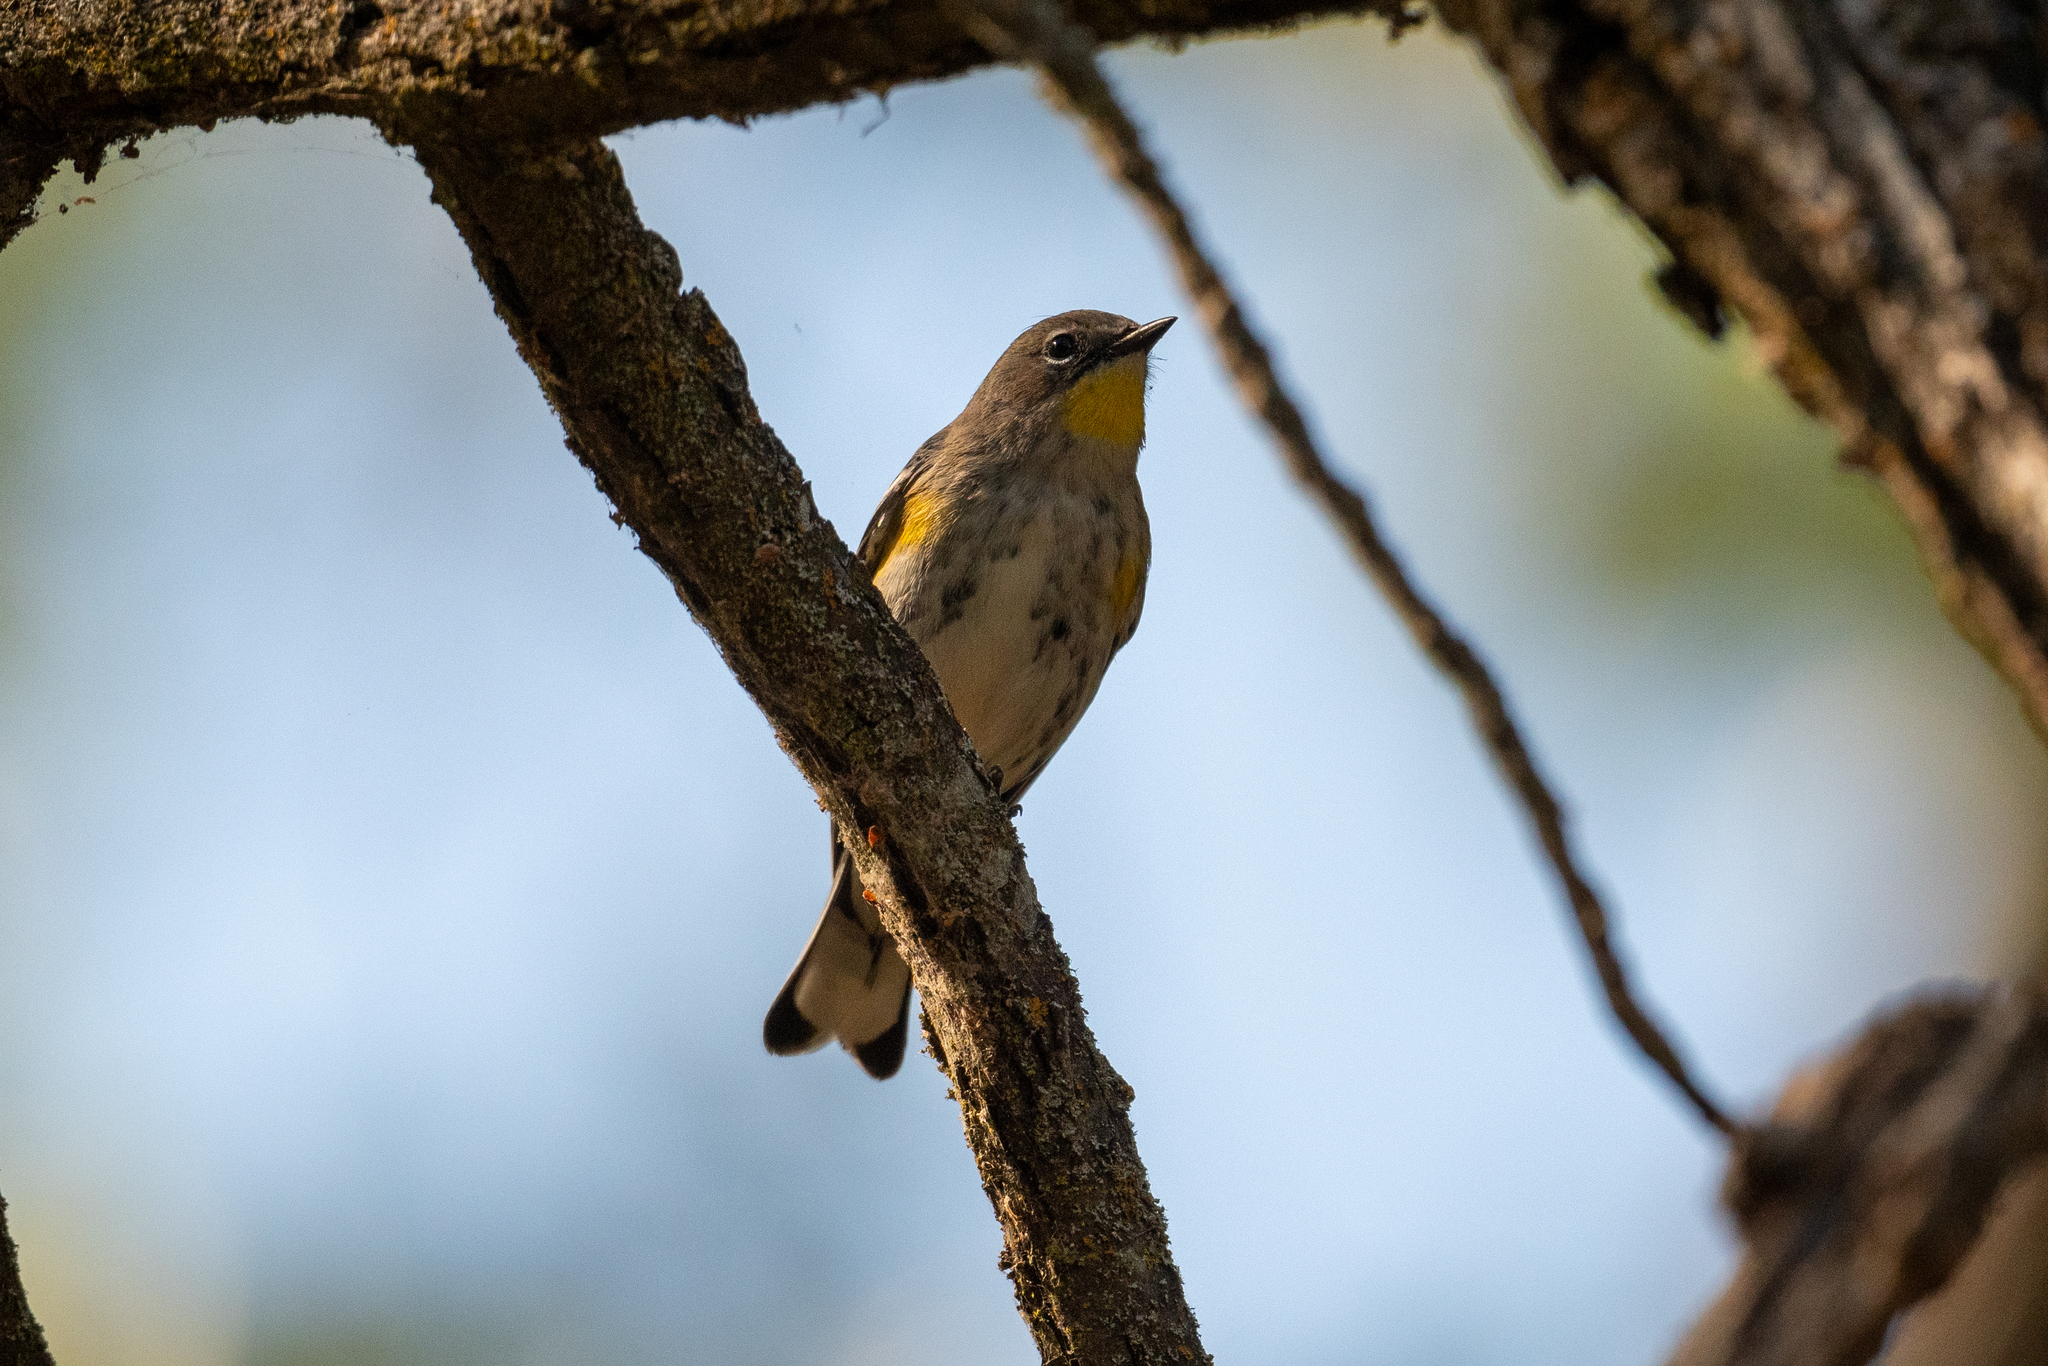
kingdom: Animalia
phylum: Chordata
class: Aves
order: Passeriformes
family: Parulidae
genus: Setophaga
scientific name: Setophaga coronata
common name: Myrtle warbler
